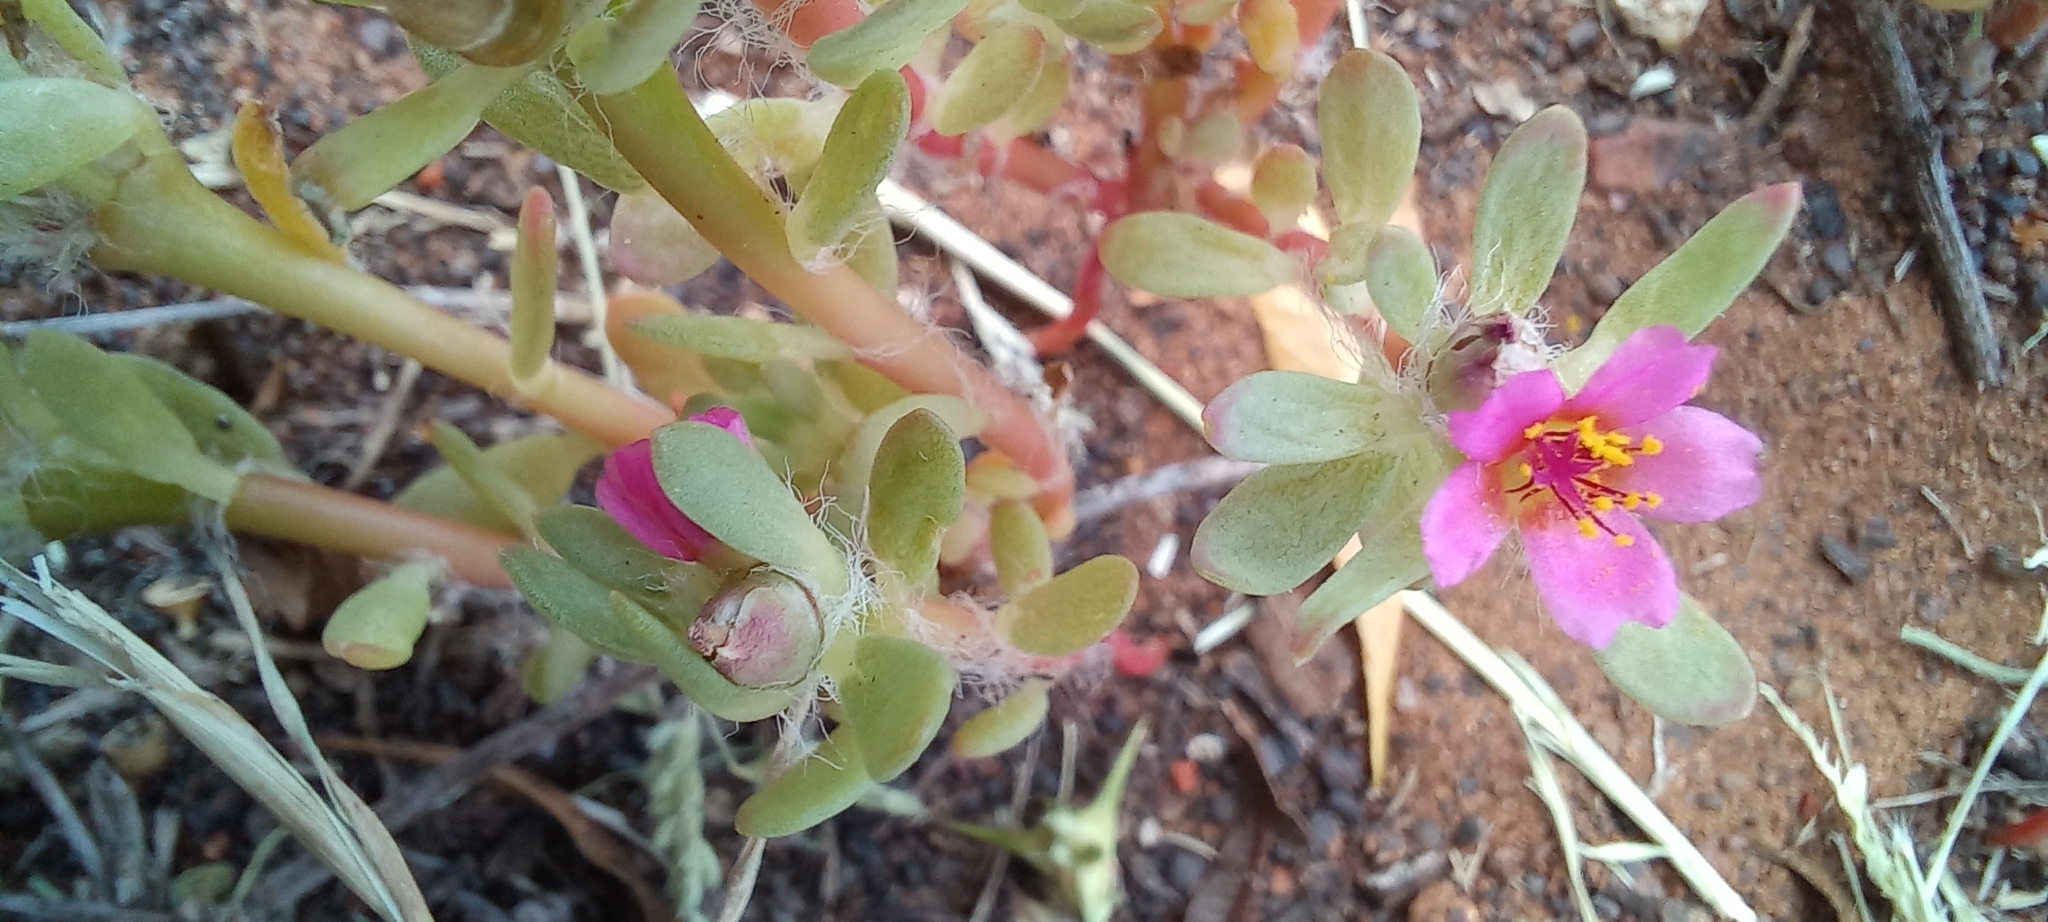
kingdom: Plantae
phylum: Tracheophyta
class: Magnoliopsida
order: Caryophyllales
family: Portulacaceae
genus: Portulaca
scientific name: Portulaca amilis
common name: Paraguayan purslane
